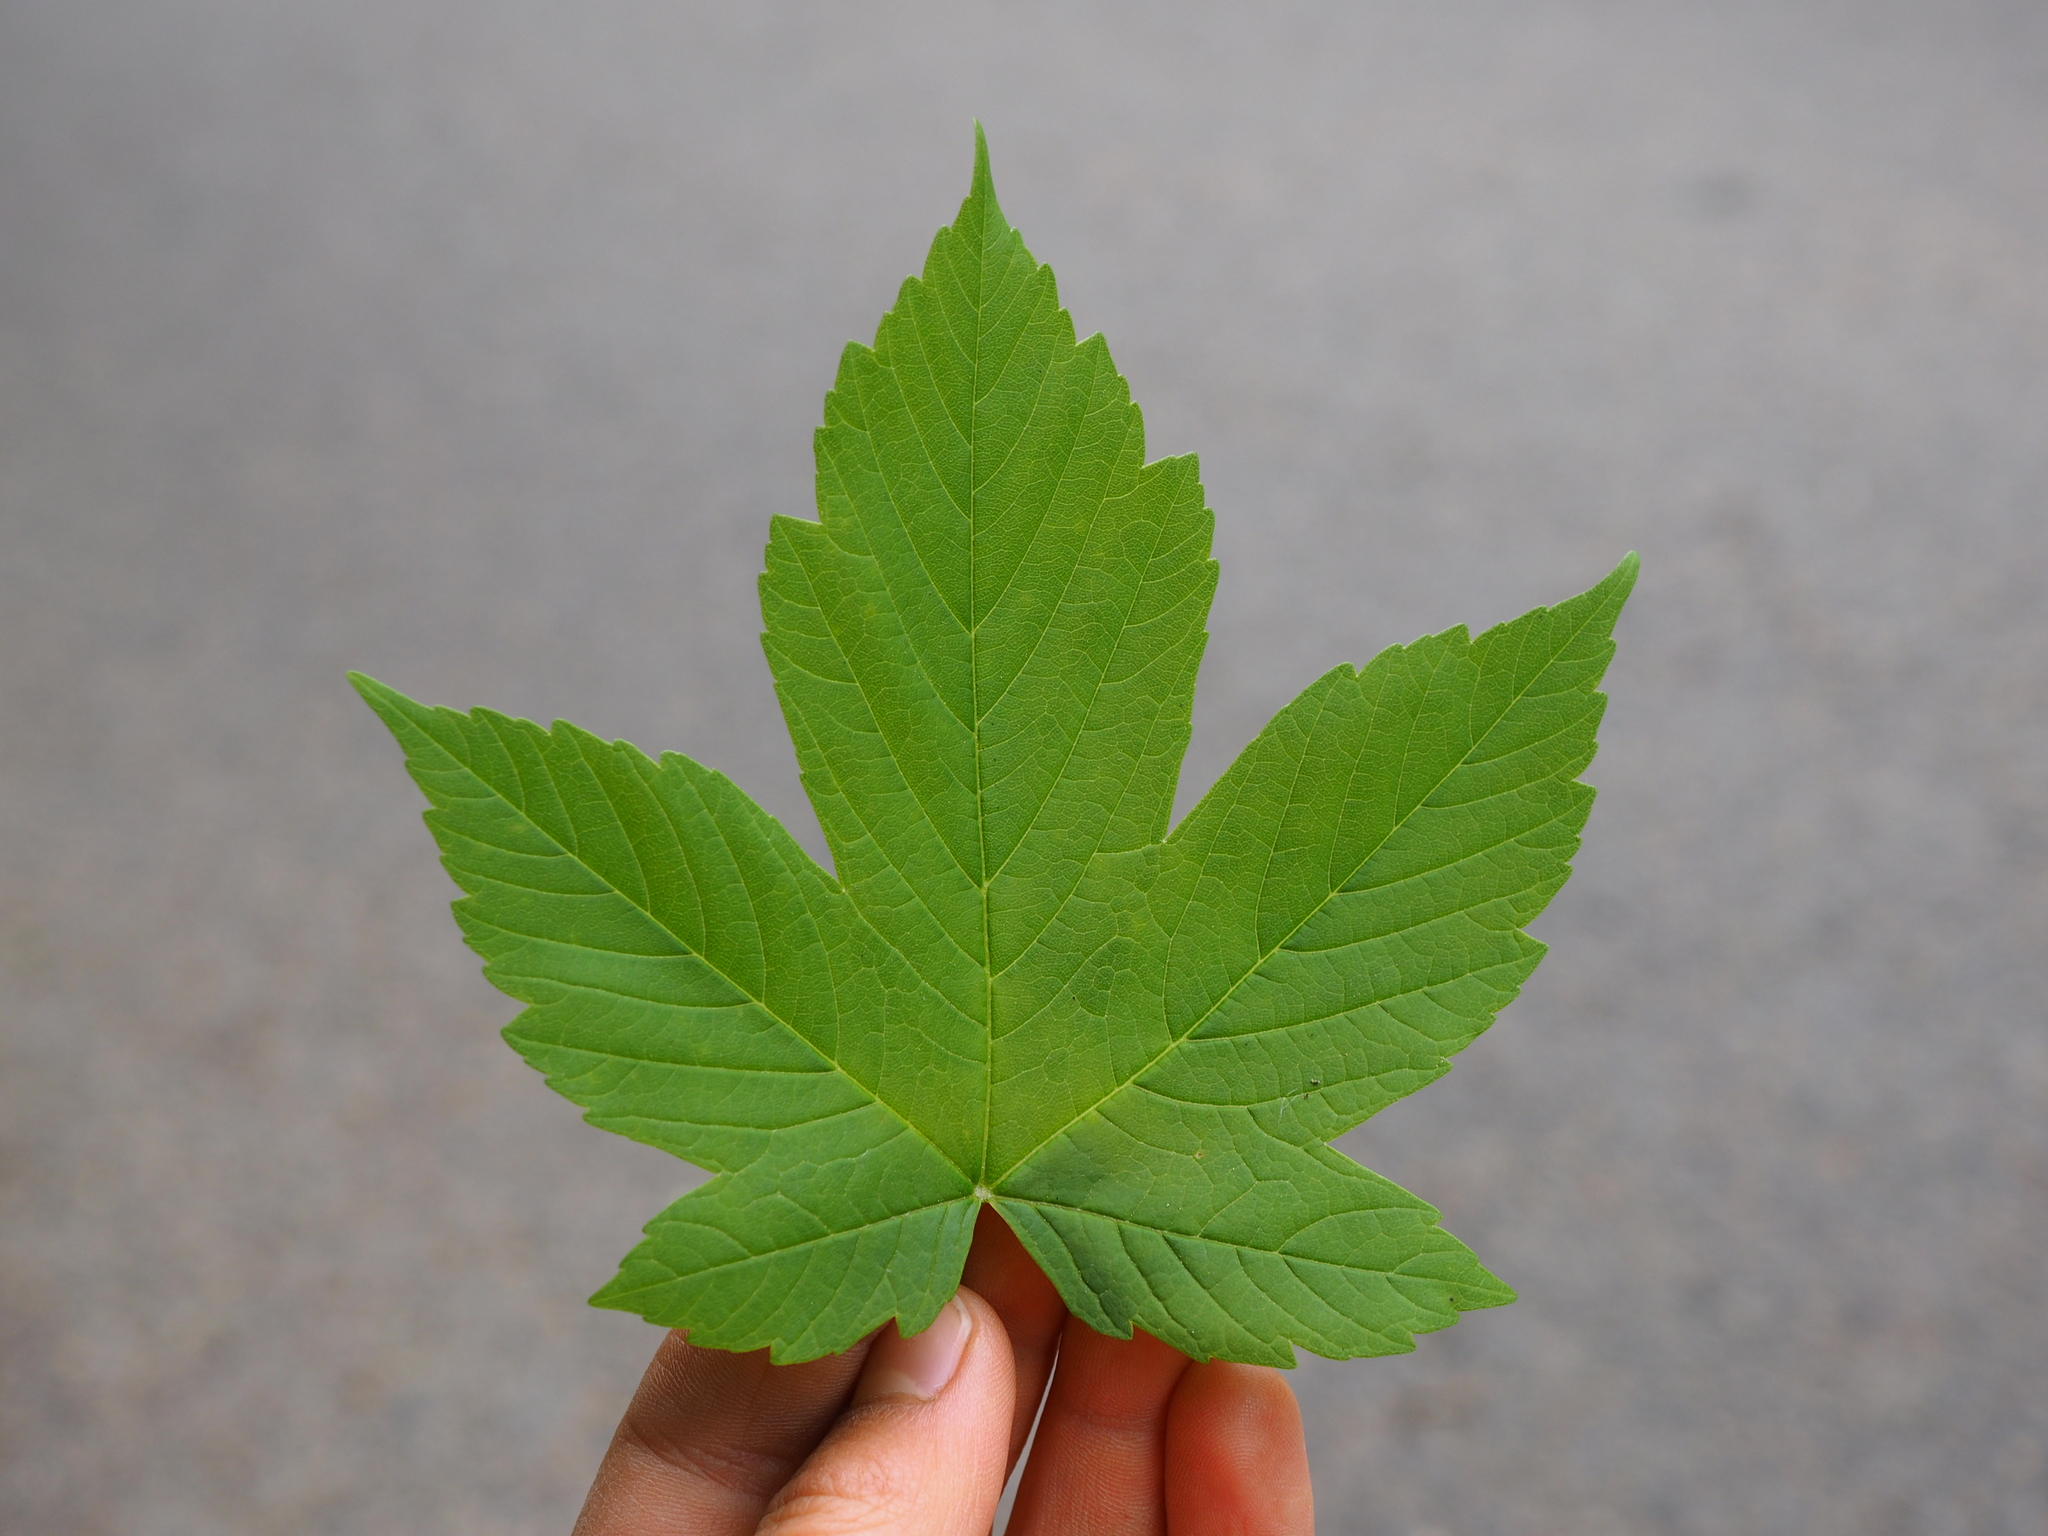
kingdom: Plantae
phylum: Tracheophyta
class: Magnoliopsida
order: Sapindales
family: Sapindaceae
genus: Acer
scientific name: Acer pseudoplatanus
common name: Sycamore
